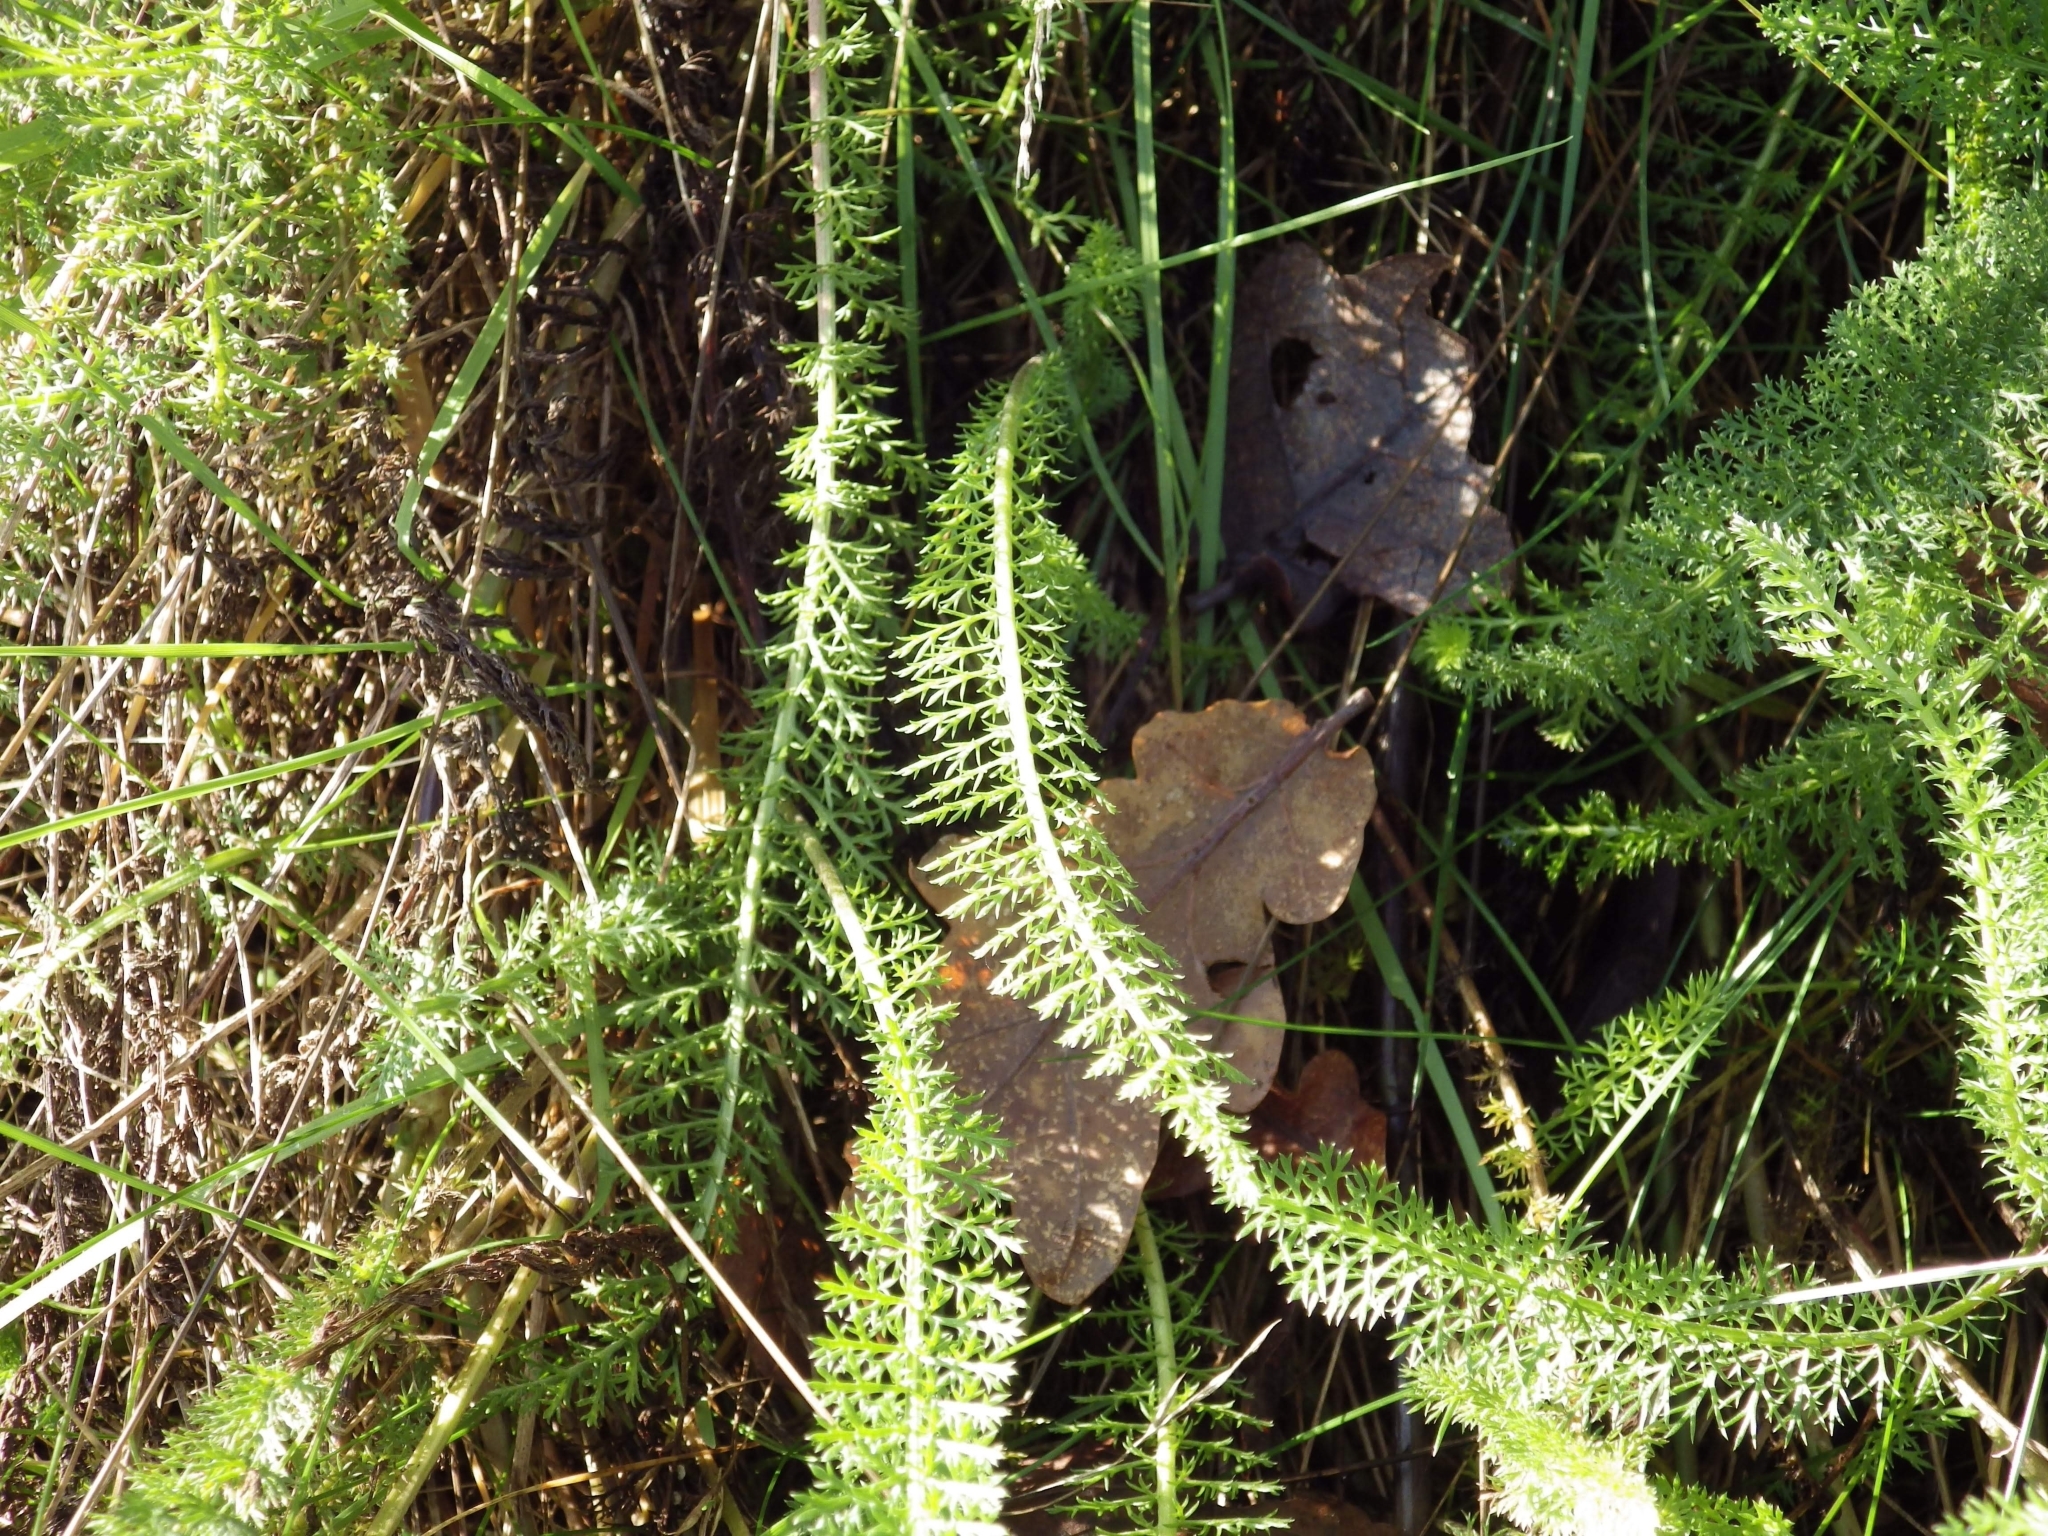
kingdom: Plantae
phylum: Tracheophyta
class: Magnoliopsida
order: Asterales
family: Asteraceae
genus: Achillea
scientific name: Achillea millefolium
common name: Yarrow
